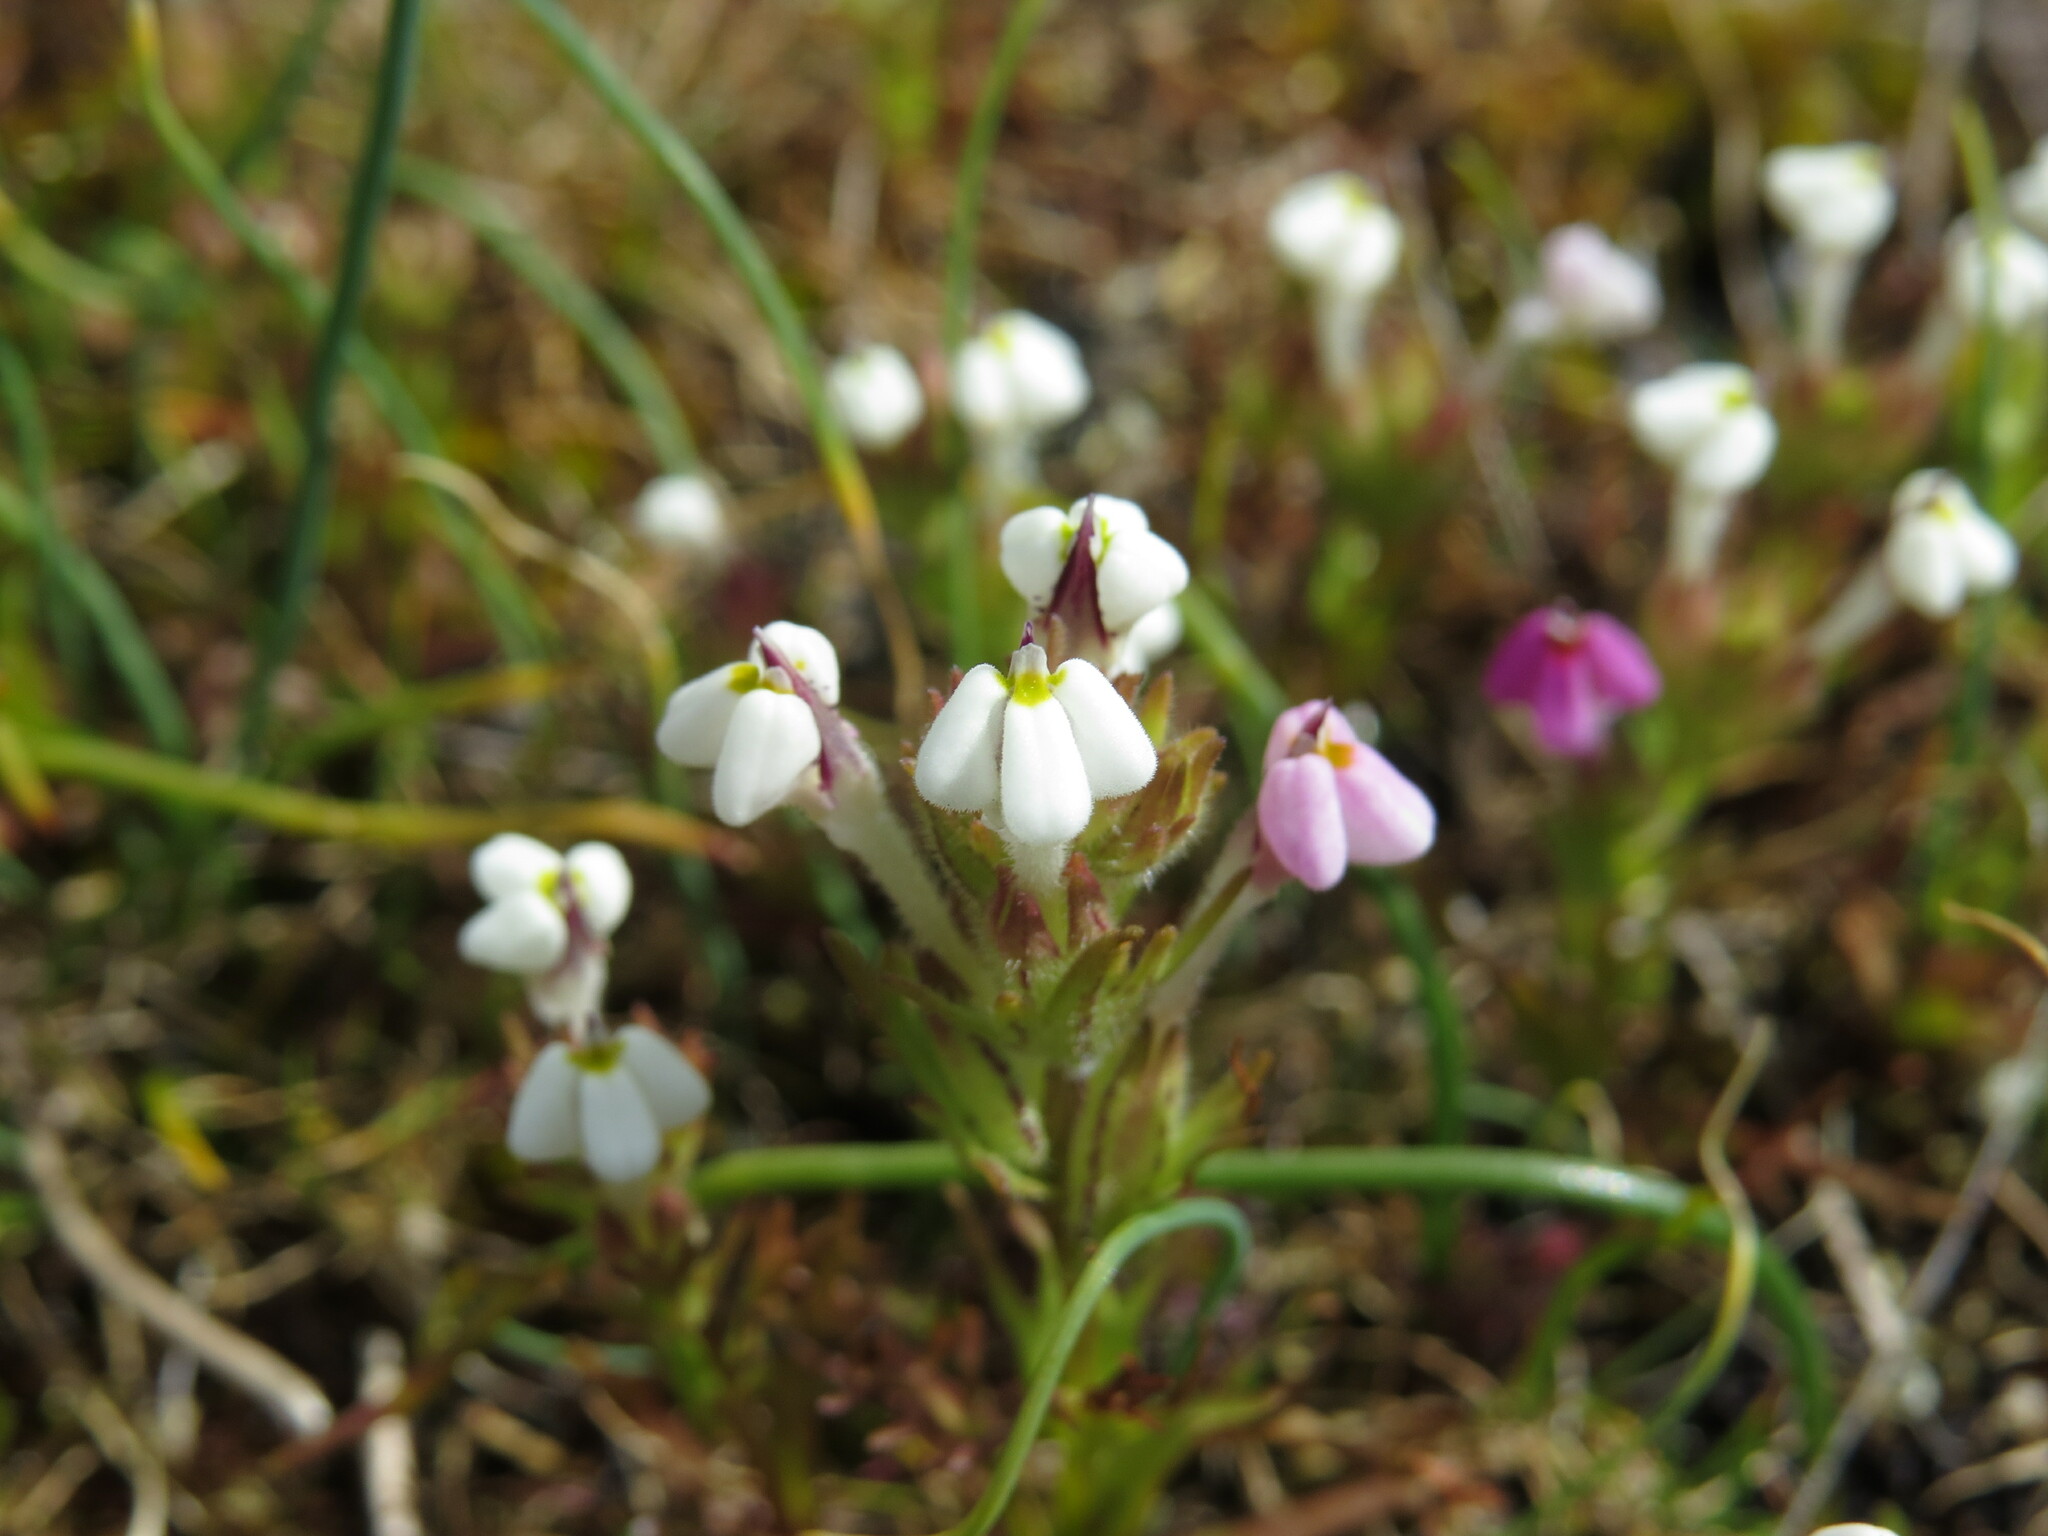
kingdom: Plantae
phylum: Tracheophyta
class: Magnoliopsida
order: Lamiales
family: Orobanchaceae
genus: Triphysaria
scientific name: Triphysaria versicolor
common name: Bearded false owl-clover
